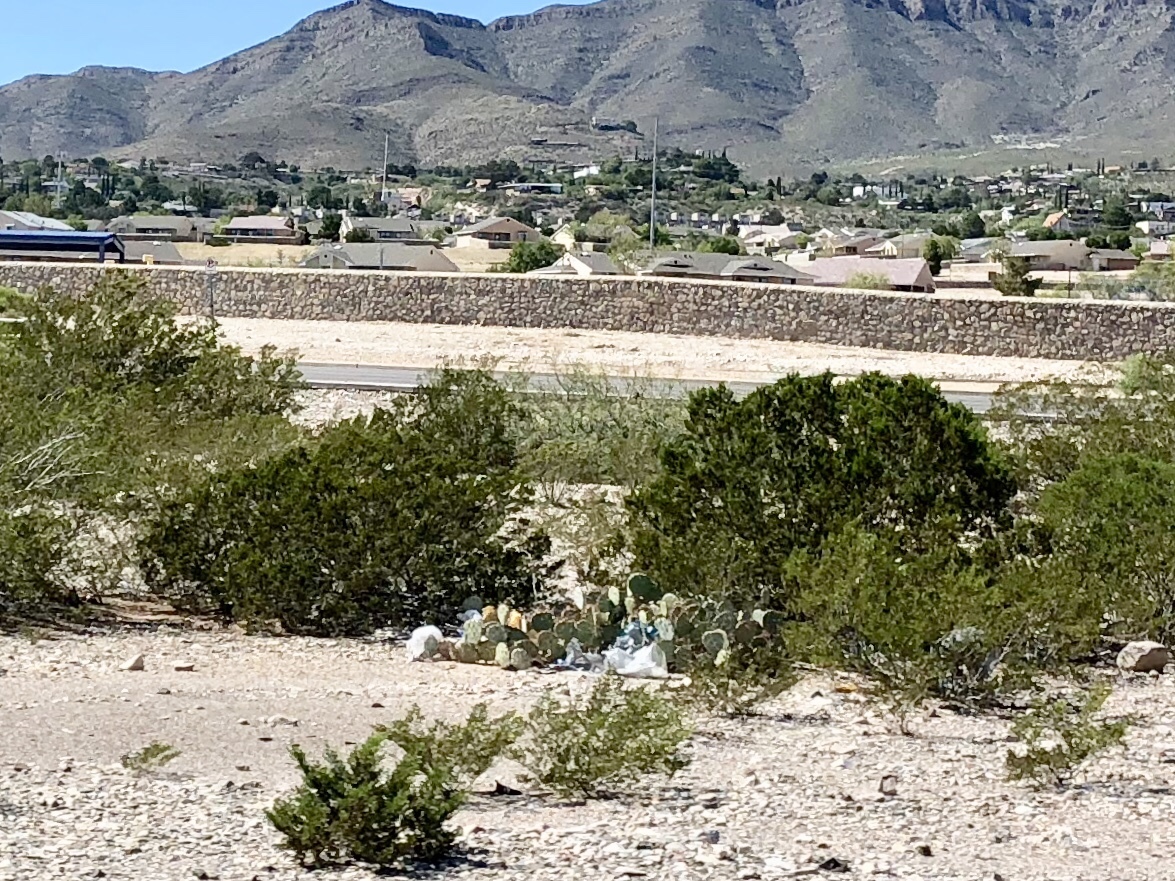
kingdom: Plantae
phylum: Tracheophyta
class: Magnoliopsida
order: Zygophyllales
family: Zygophyllaceae
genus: Larrea
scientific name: Larrea tridentata
